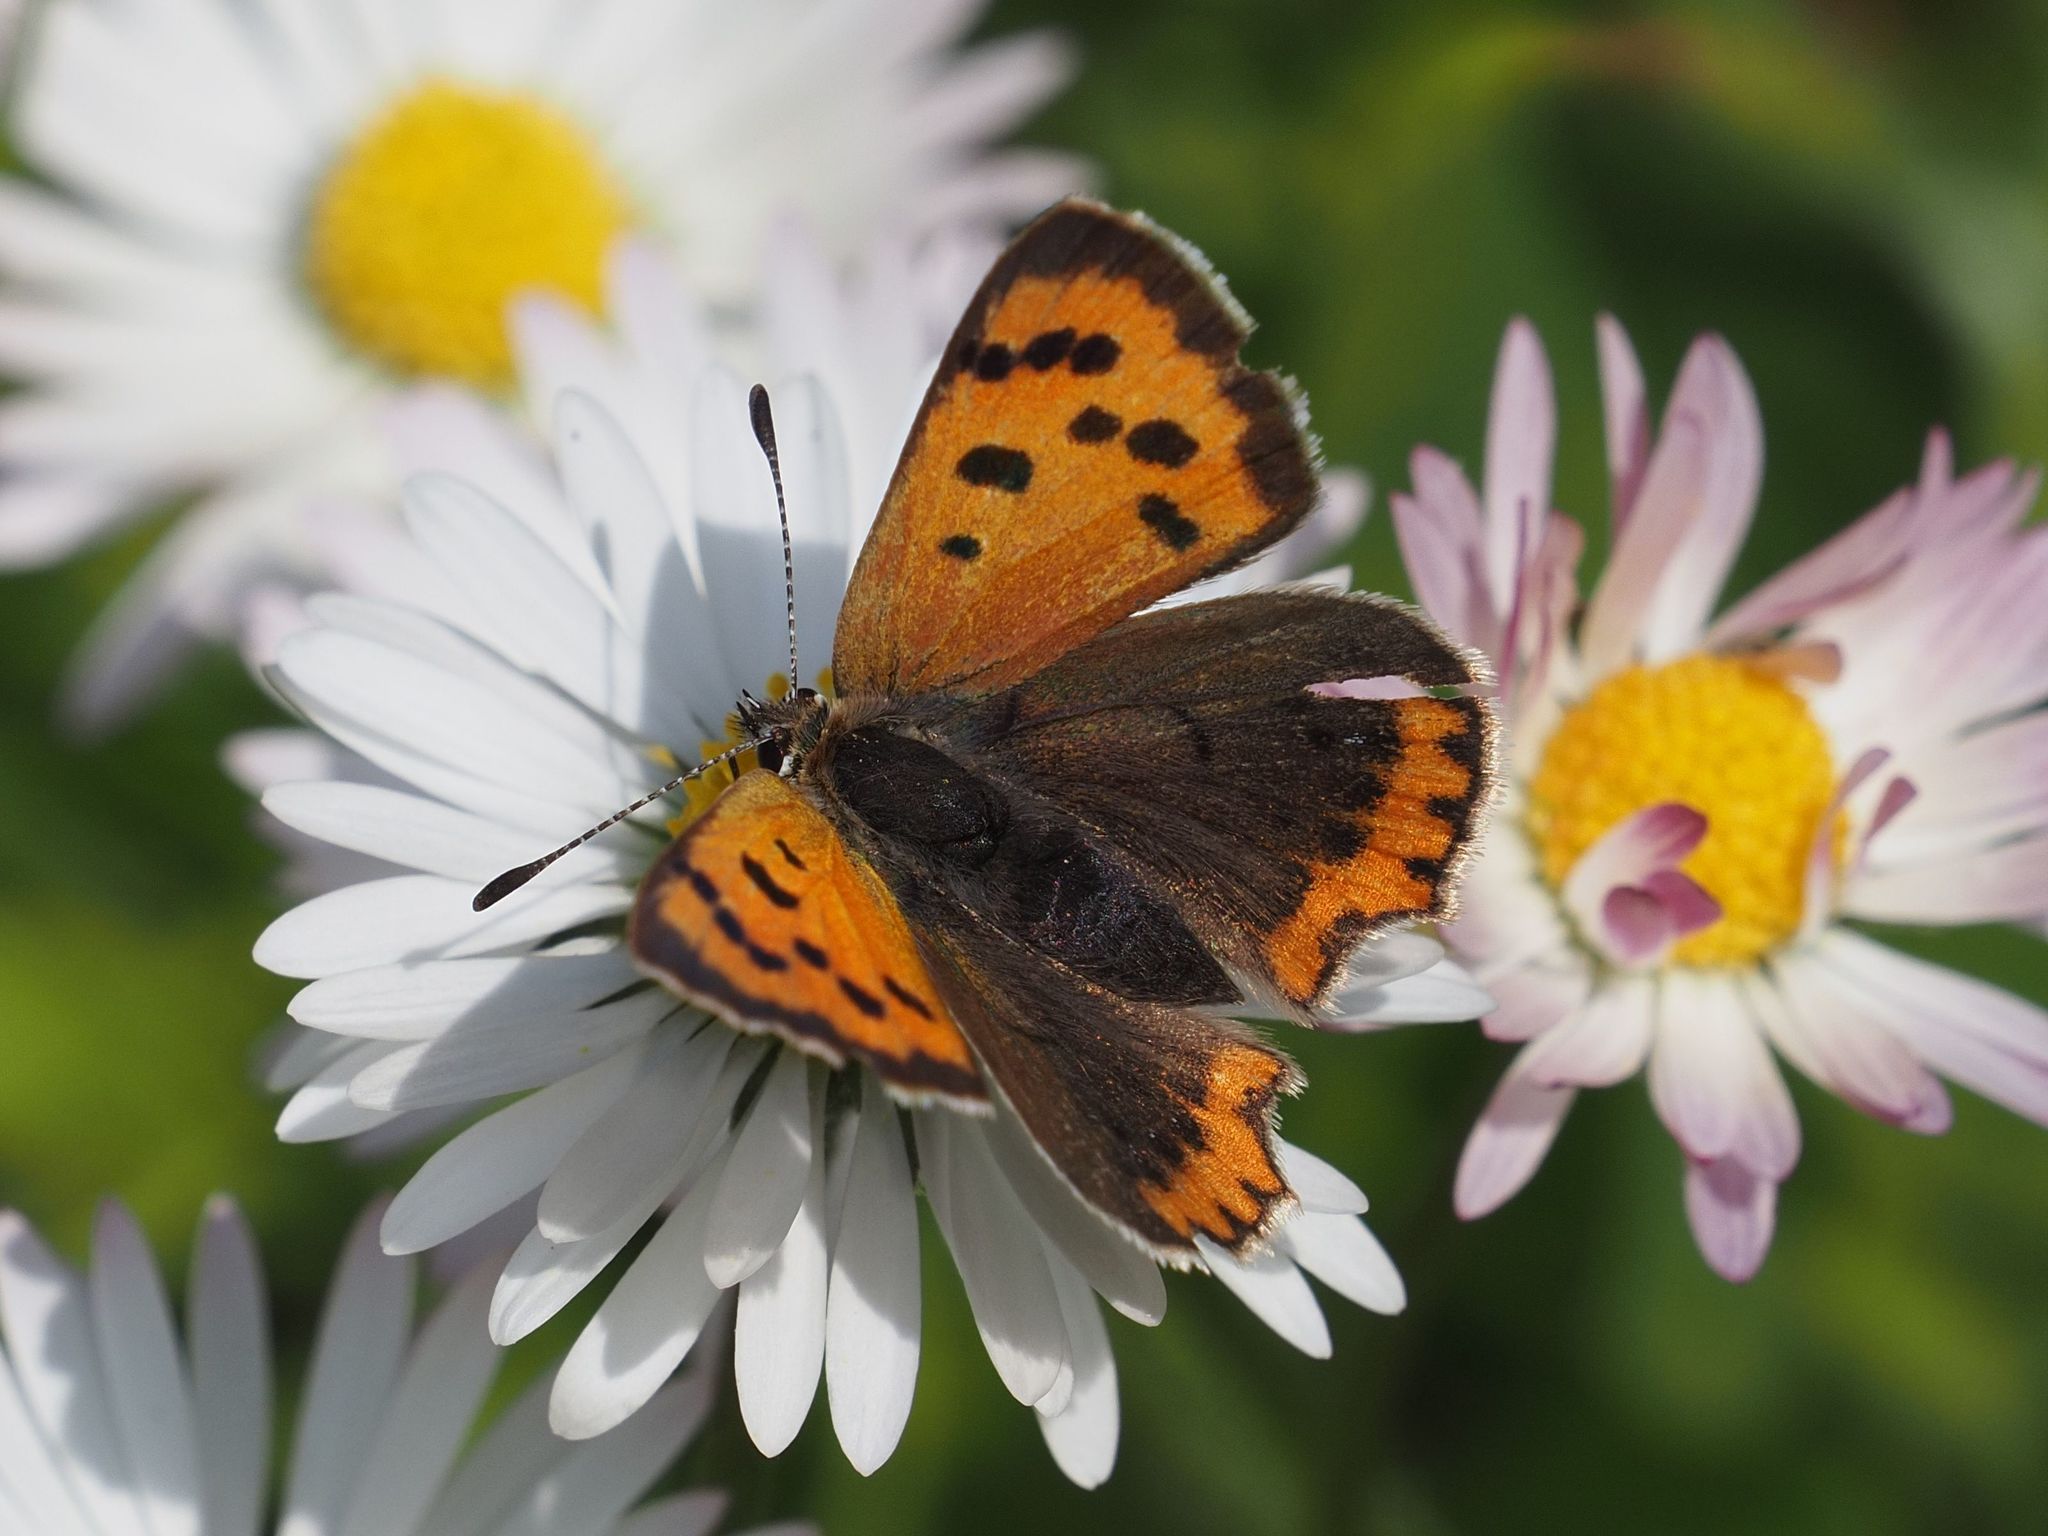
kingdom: Animalia
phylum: Arthropoda
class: Insecta
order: Lepidoptera
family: Lycaenidae
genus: Lycaena
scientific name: Lycaena phlaeas
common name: Small copper
